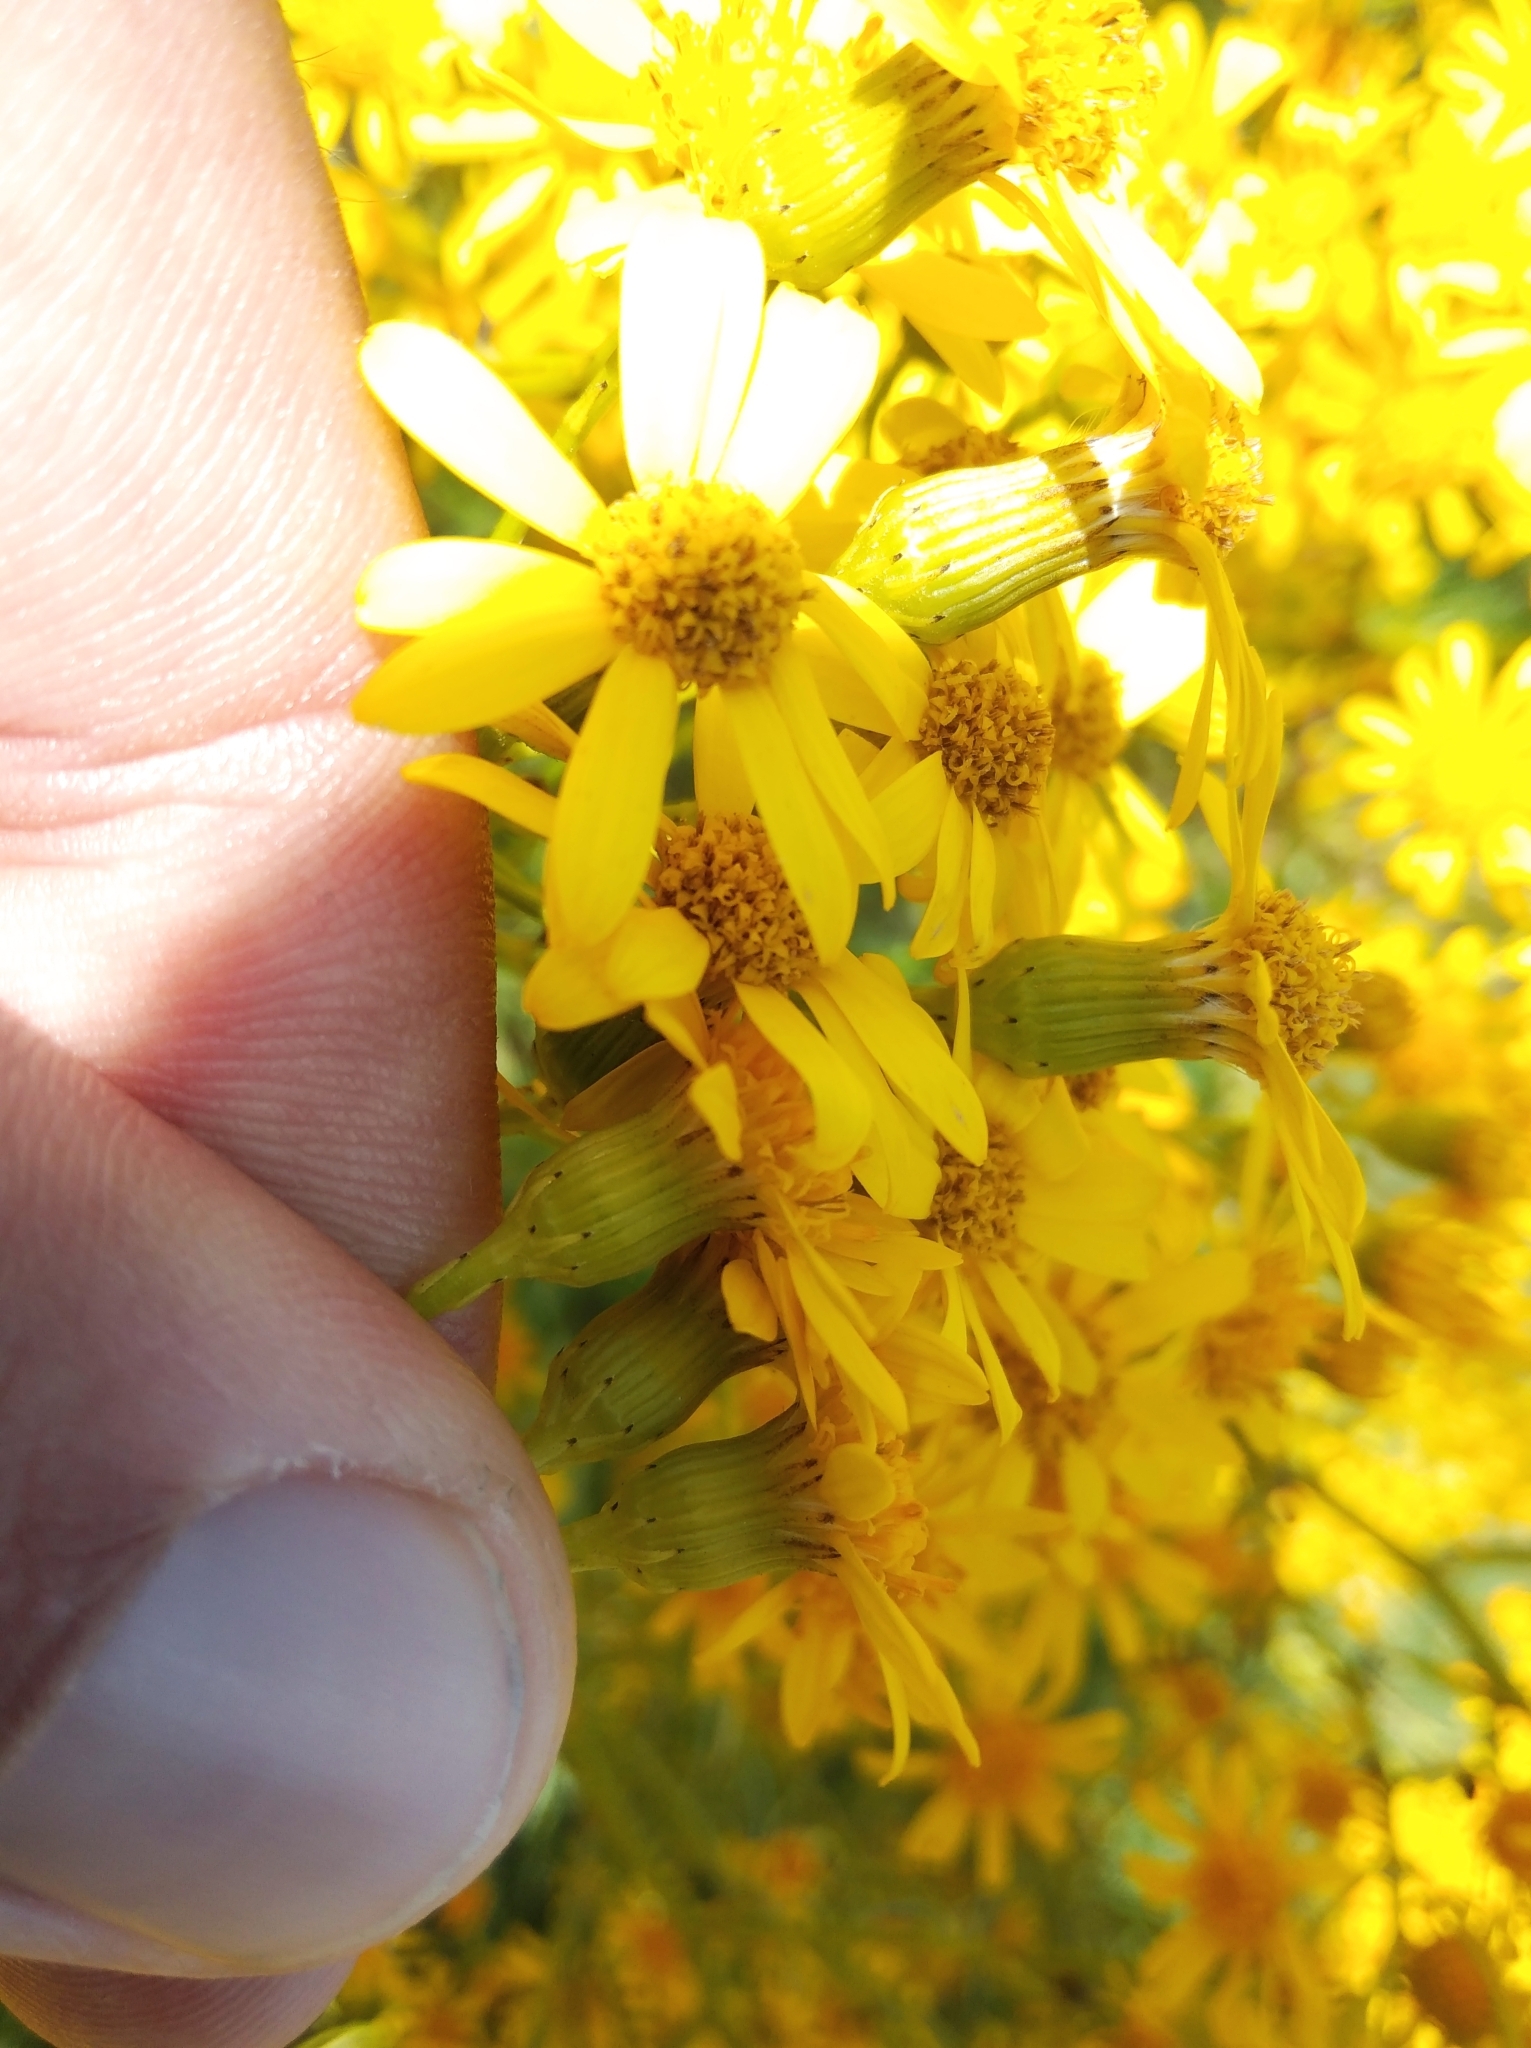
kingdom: Plantae
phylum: Tracheophyta
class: Magnoliopsida
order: Asterales
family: Asteraceae
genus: Senecio
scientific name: Senecio brasiliensis
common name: Hemp-leaf ragwort
